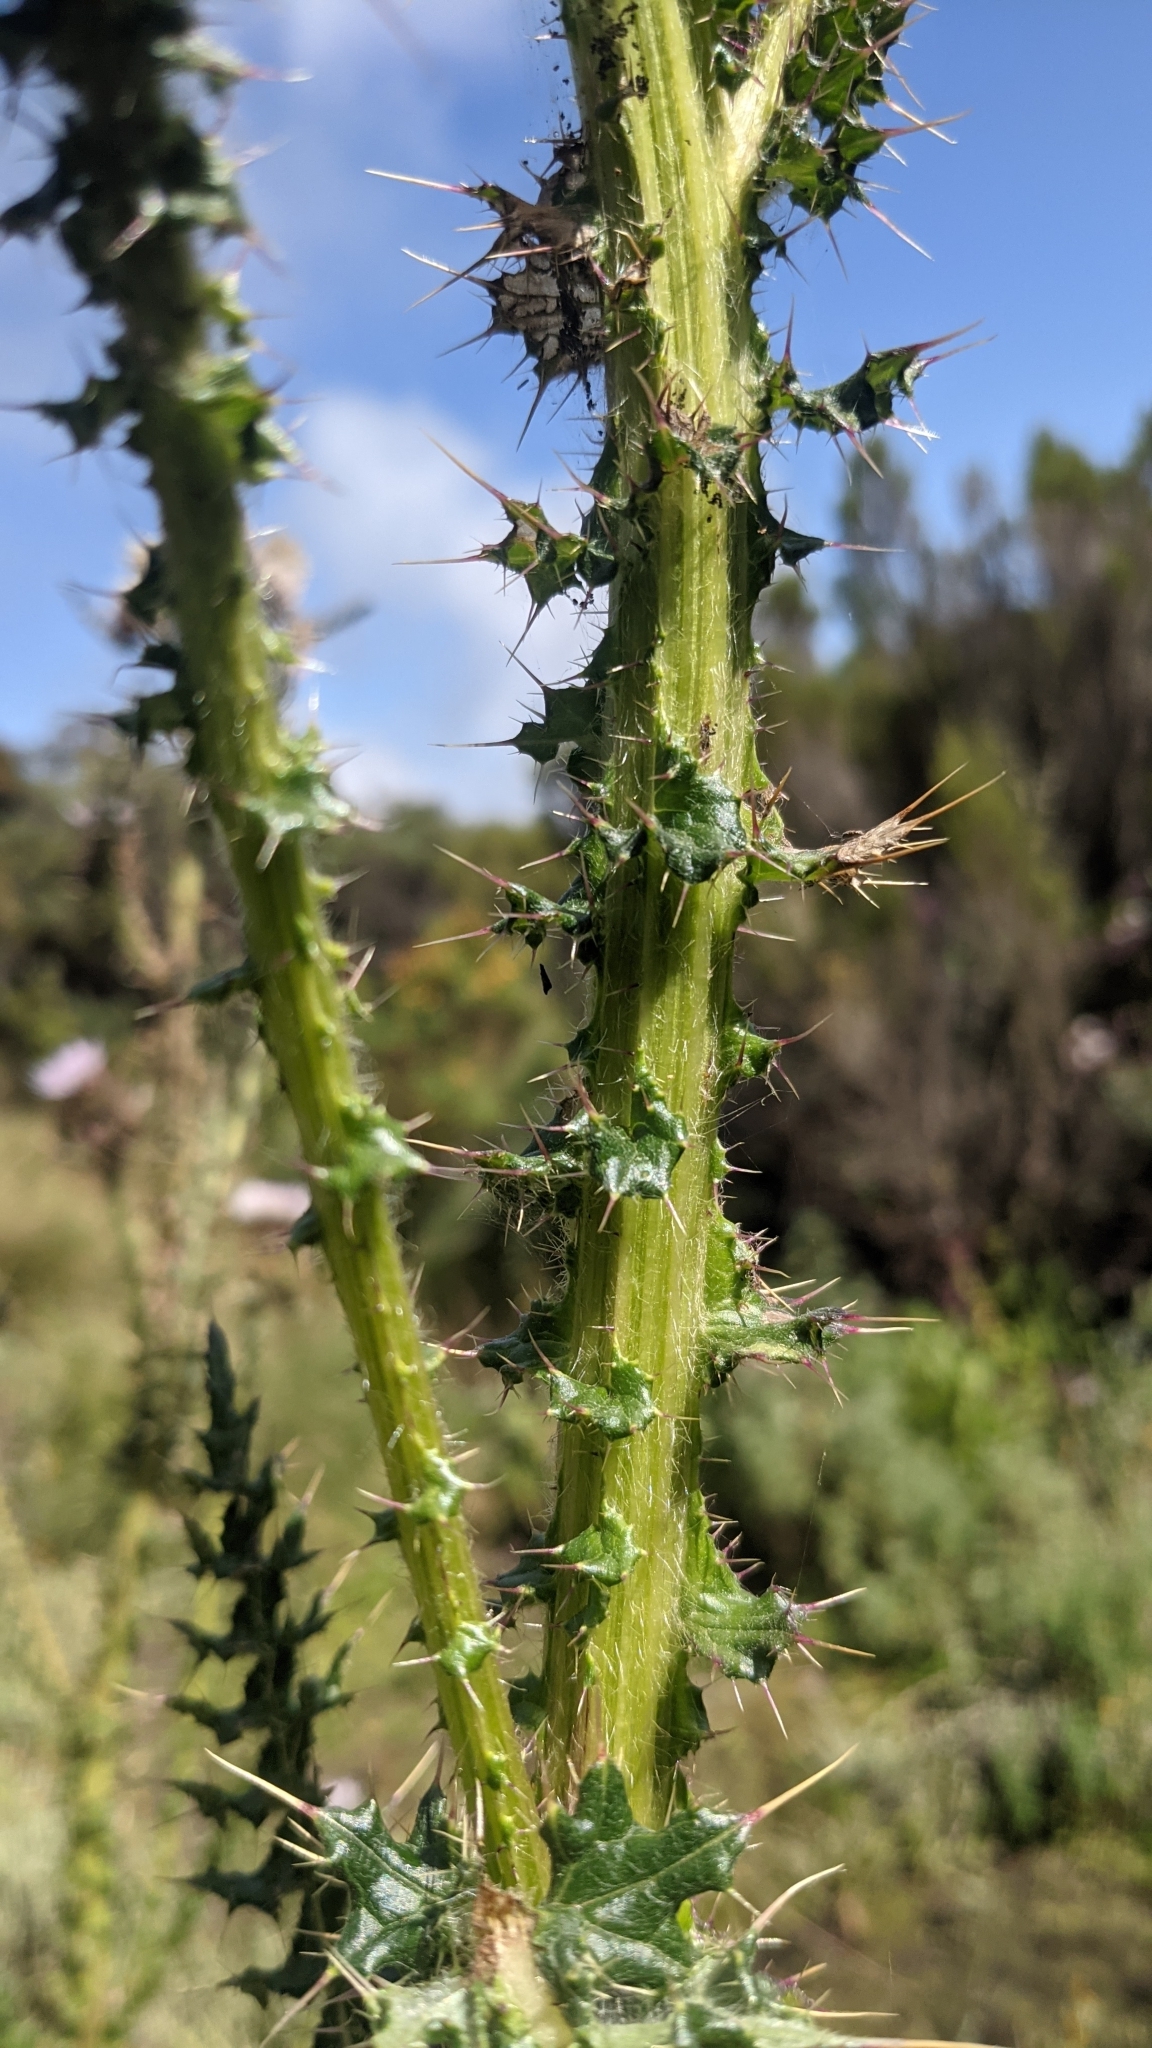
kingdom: Plantae
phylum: Tracheophyta
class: Magnoliopsida
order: Asterales
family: Asteraceae
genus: Carduus
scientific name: Carduus keniensis
